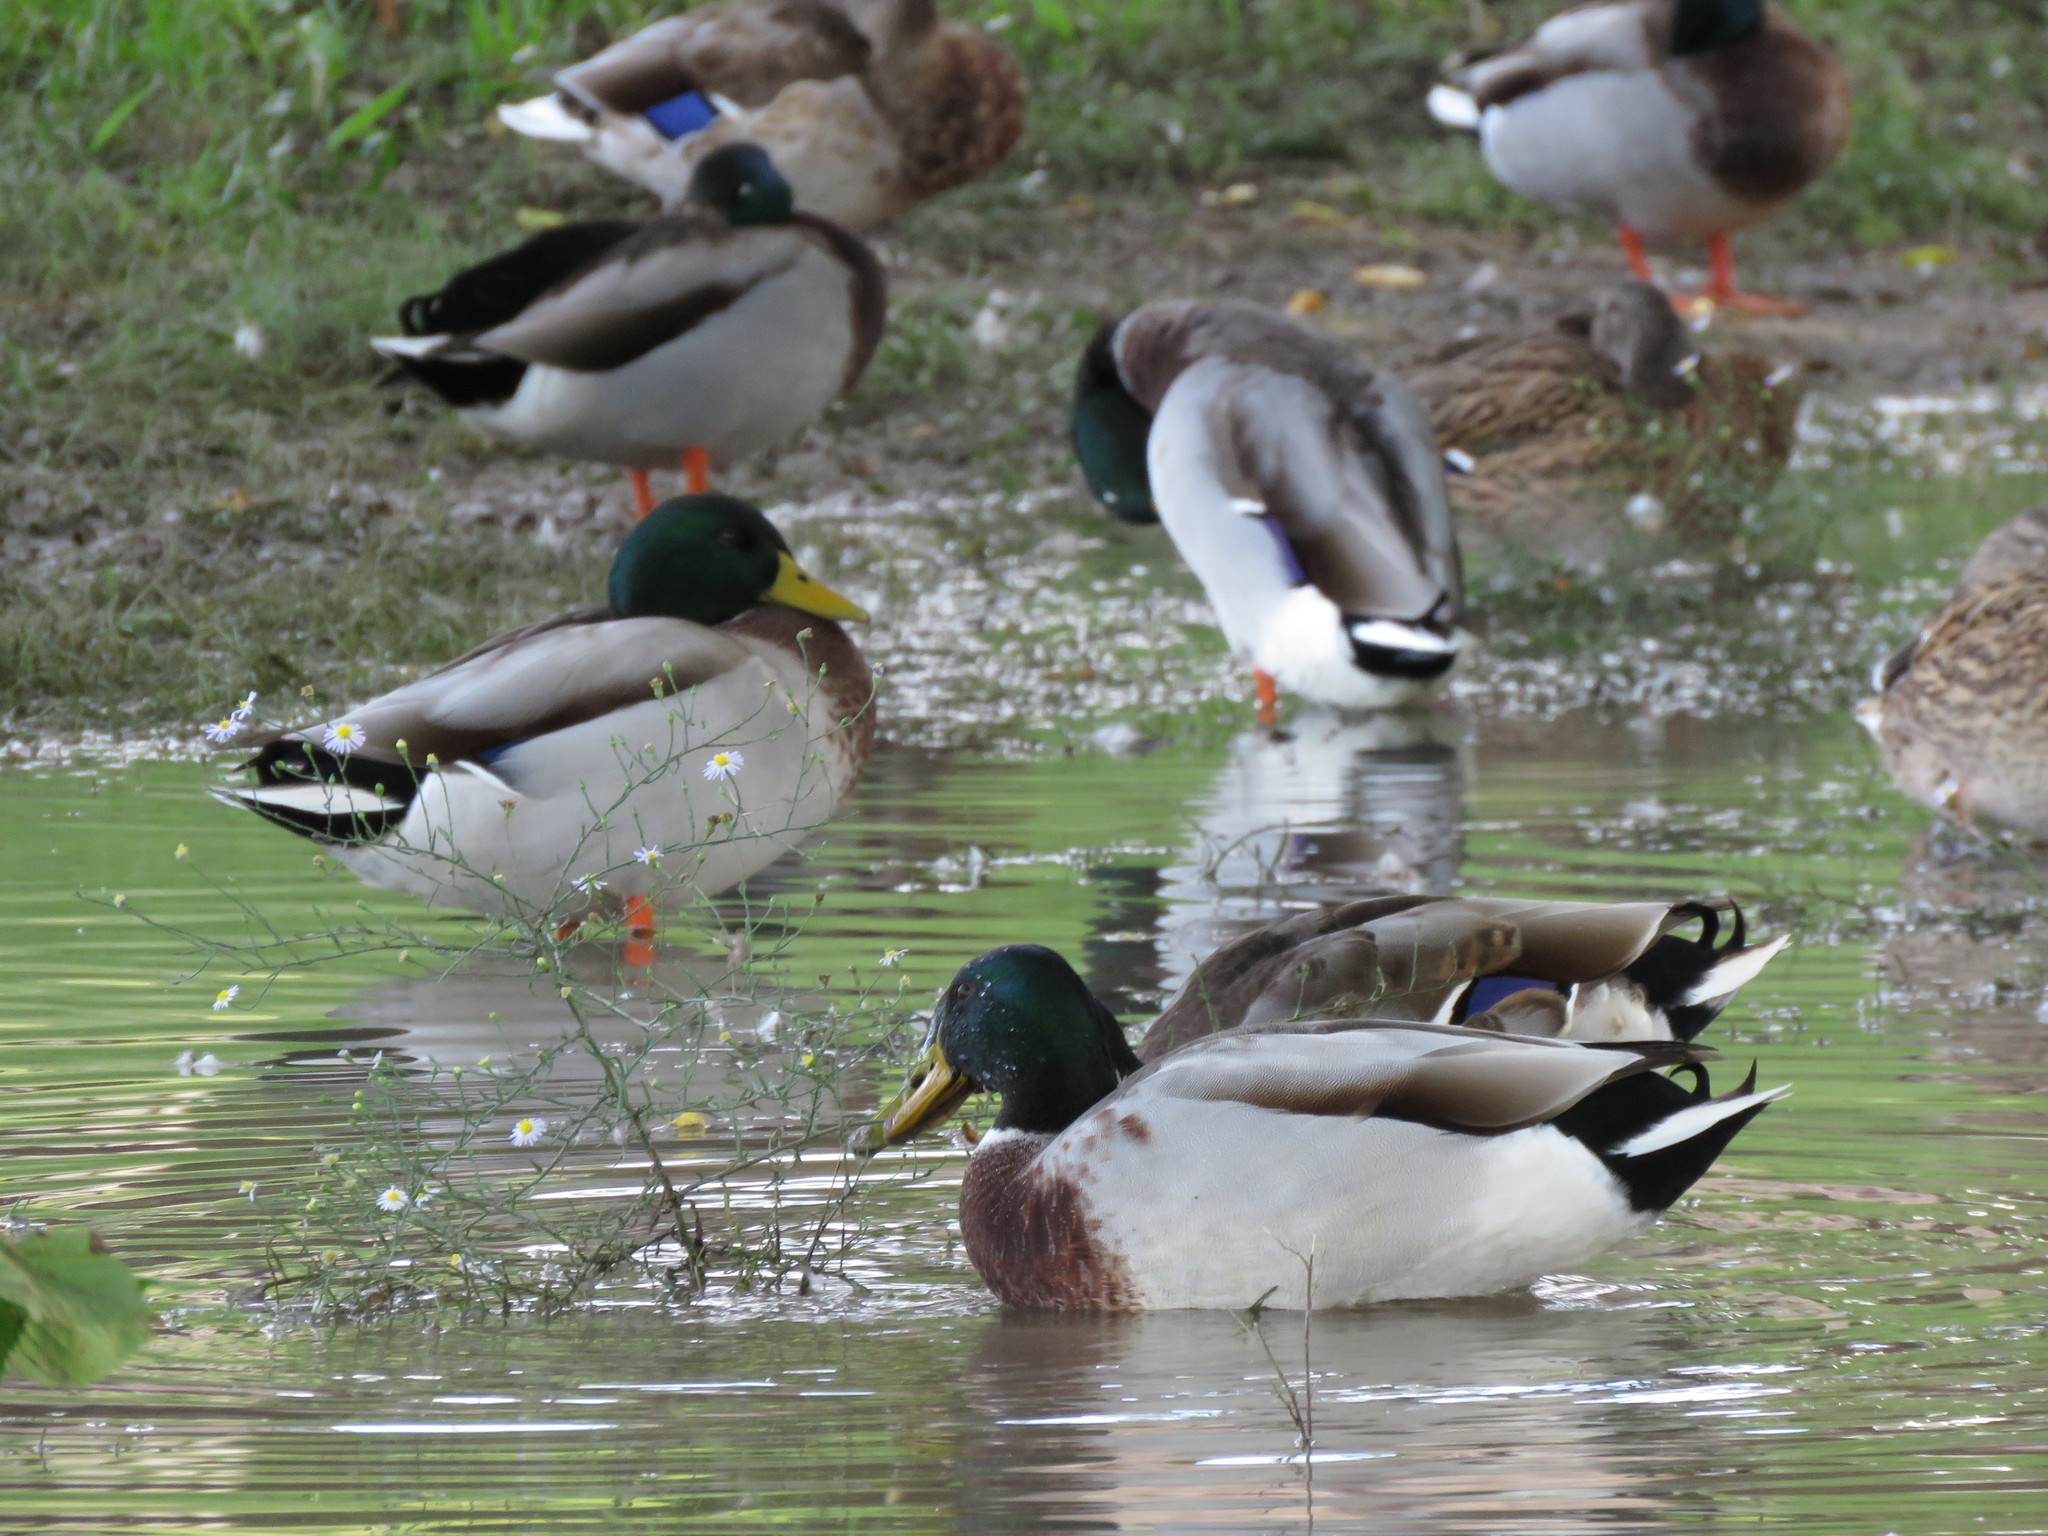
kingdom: Animalia
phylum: Chordata
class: Aves
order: Anseriformes
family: Anatidae
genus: Anas
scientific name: Anas platyrhynchos
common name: Mallard
